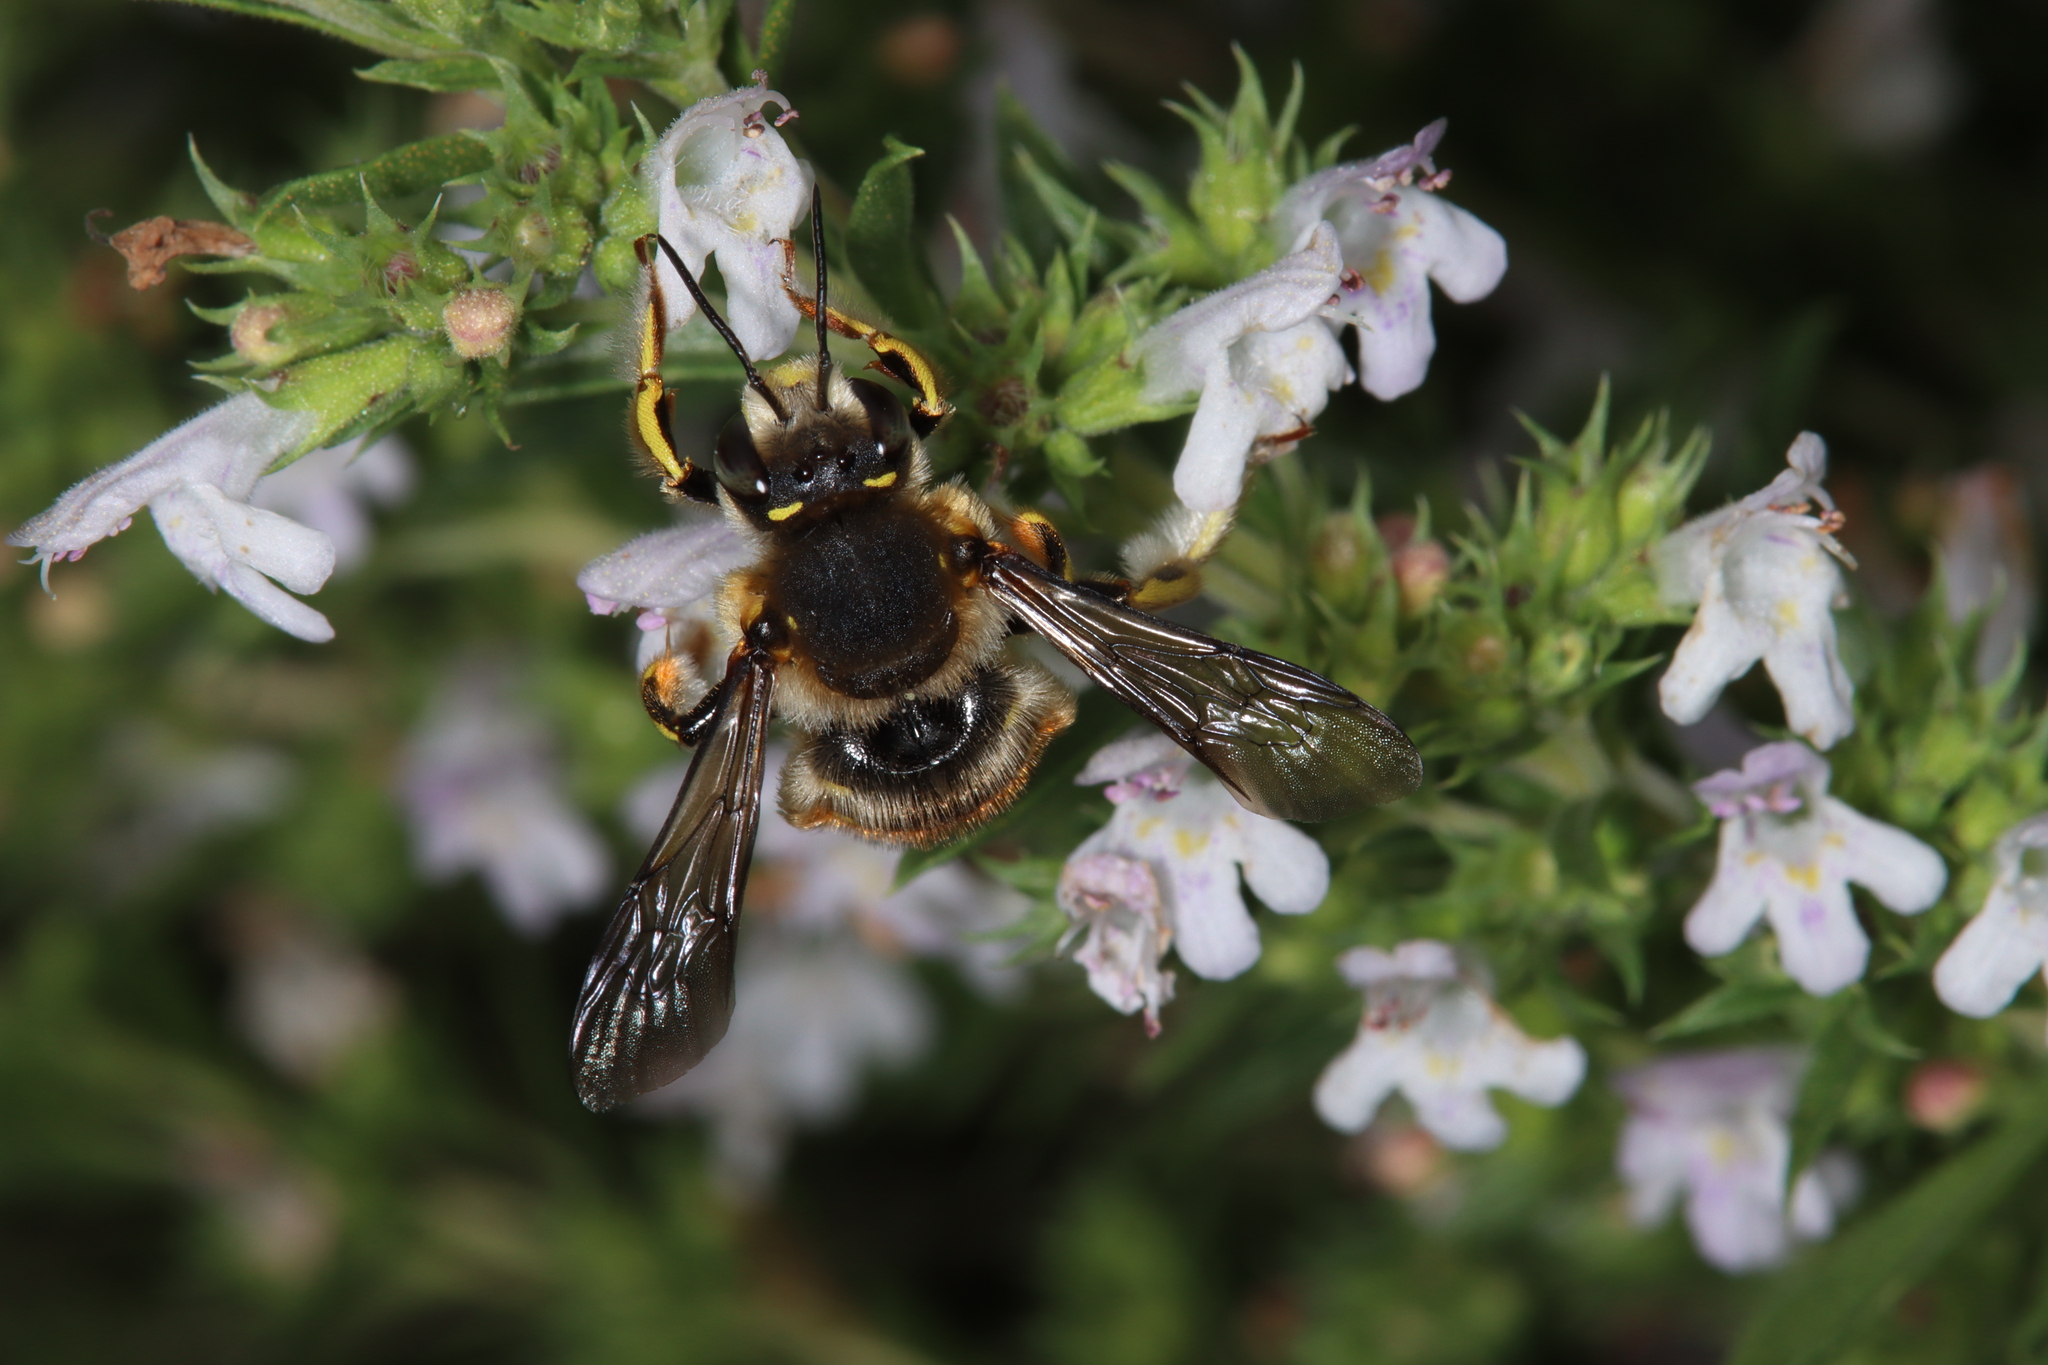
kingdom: Animalia
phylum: Arthropoda
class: Insecta
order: Hymenoptera
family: Megachilidae
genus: Anthidium
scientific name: Anthidium manicatum
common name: Wool carder bee
